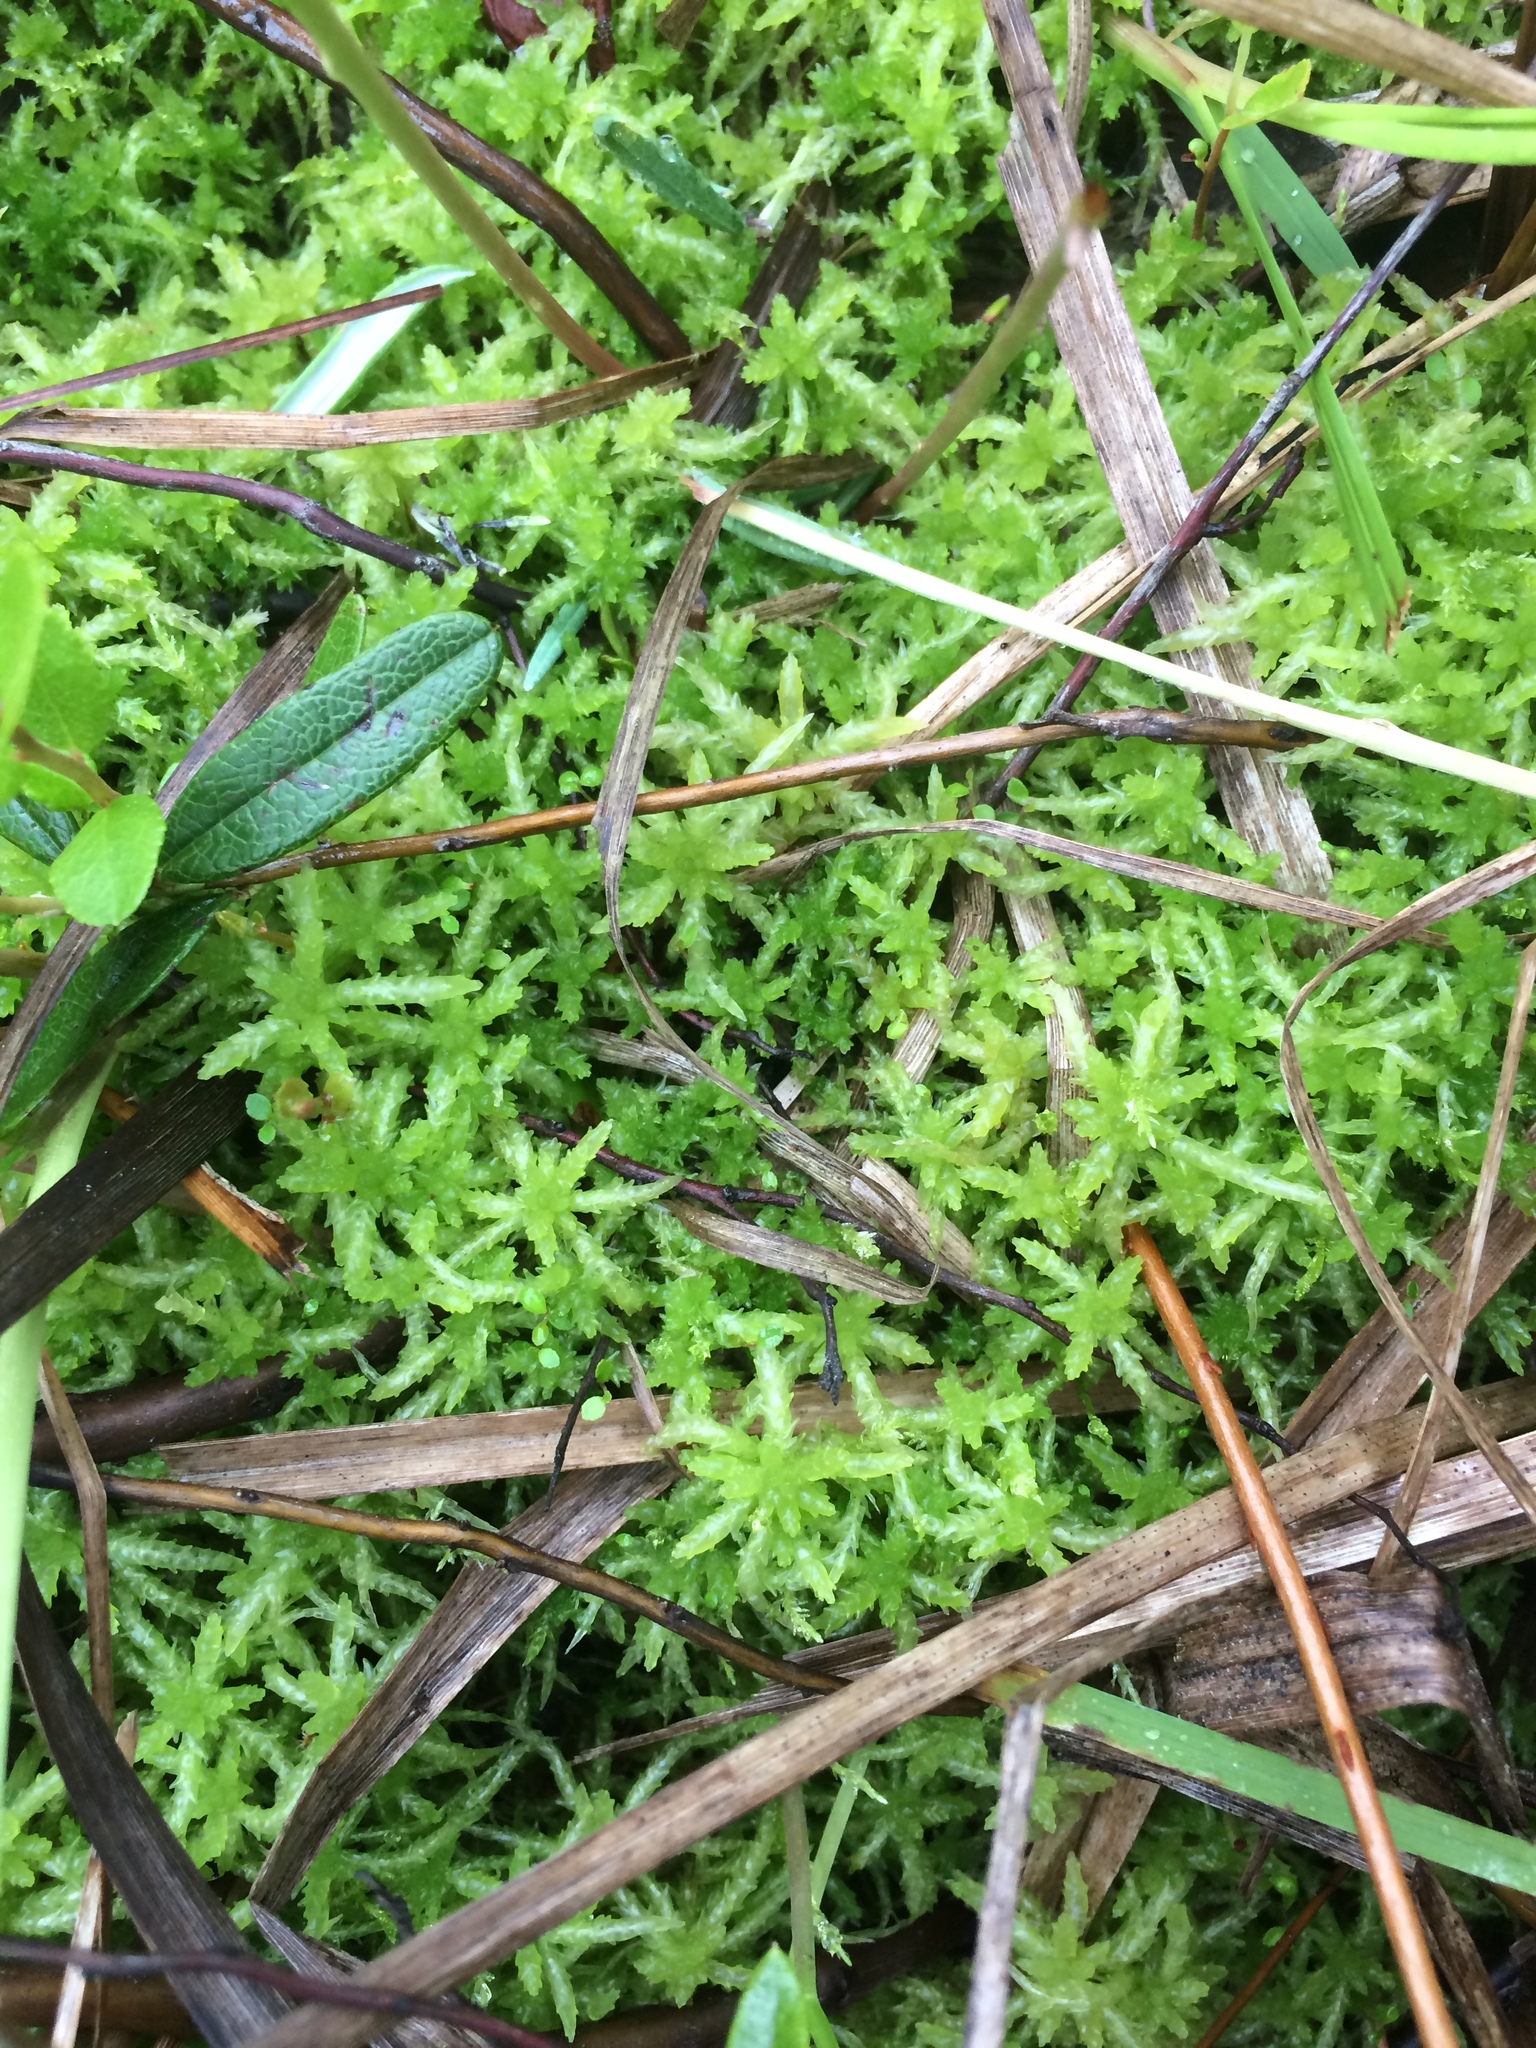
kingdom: Plantae
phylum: Bryophyta
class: Sphagnopsida
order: Sphagnales
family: Sphagnaceae
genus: Sphagnum
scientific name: Sphagnum centrale
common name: Central peat moss
